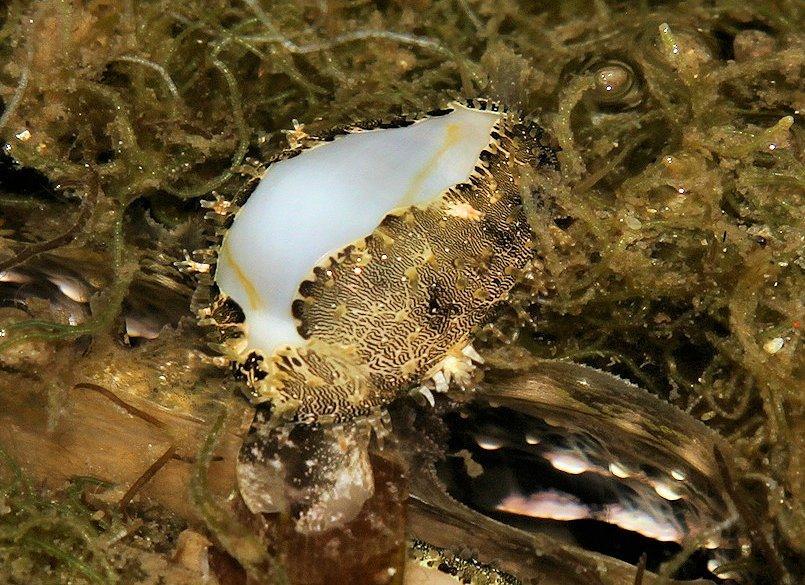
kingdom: Animalia
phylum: Mollusca
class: Gastropoda
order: Littorinimorpha
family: Cypraeidae
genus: Monetaria
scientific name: Monetaria annulus
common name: Ring cowrie
